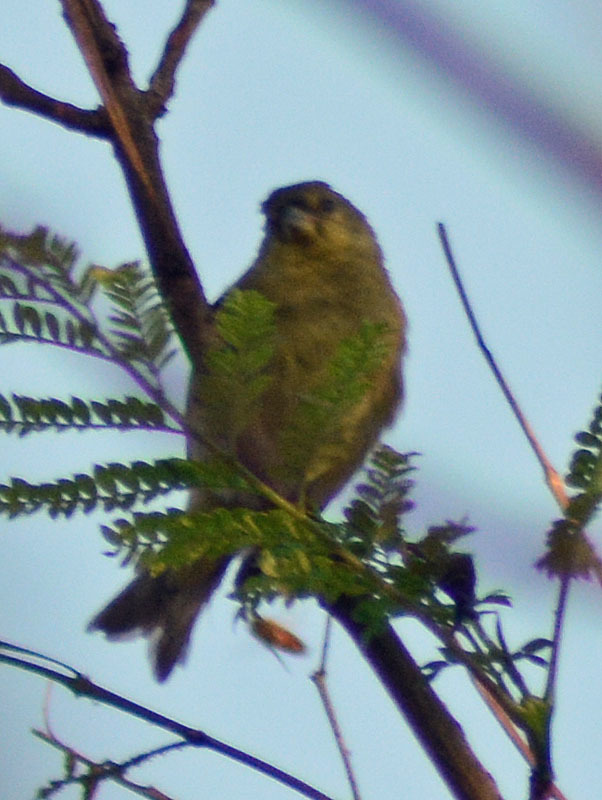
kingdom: Animalia
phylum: Chordata
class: Aves
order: Passeriformes
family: Fringillidae
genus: Spinus
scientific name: Spinus psaltria
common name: Lesser goldfinch
